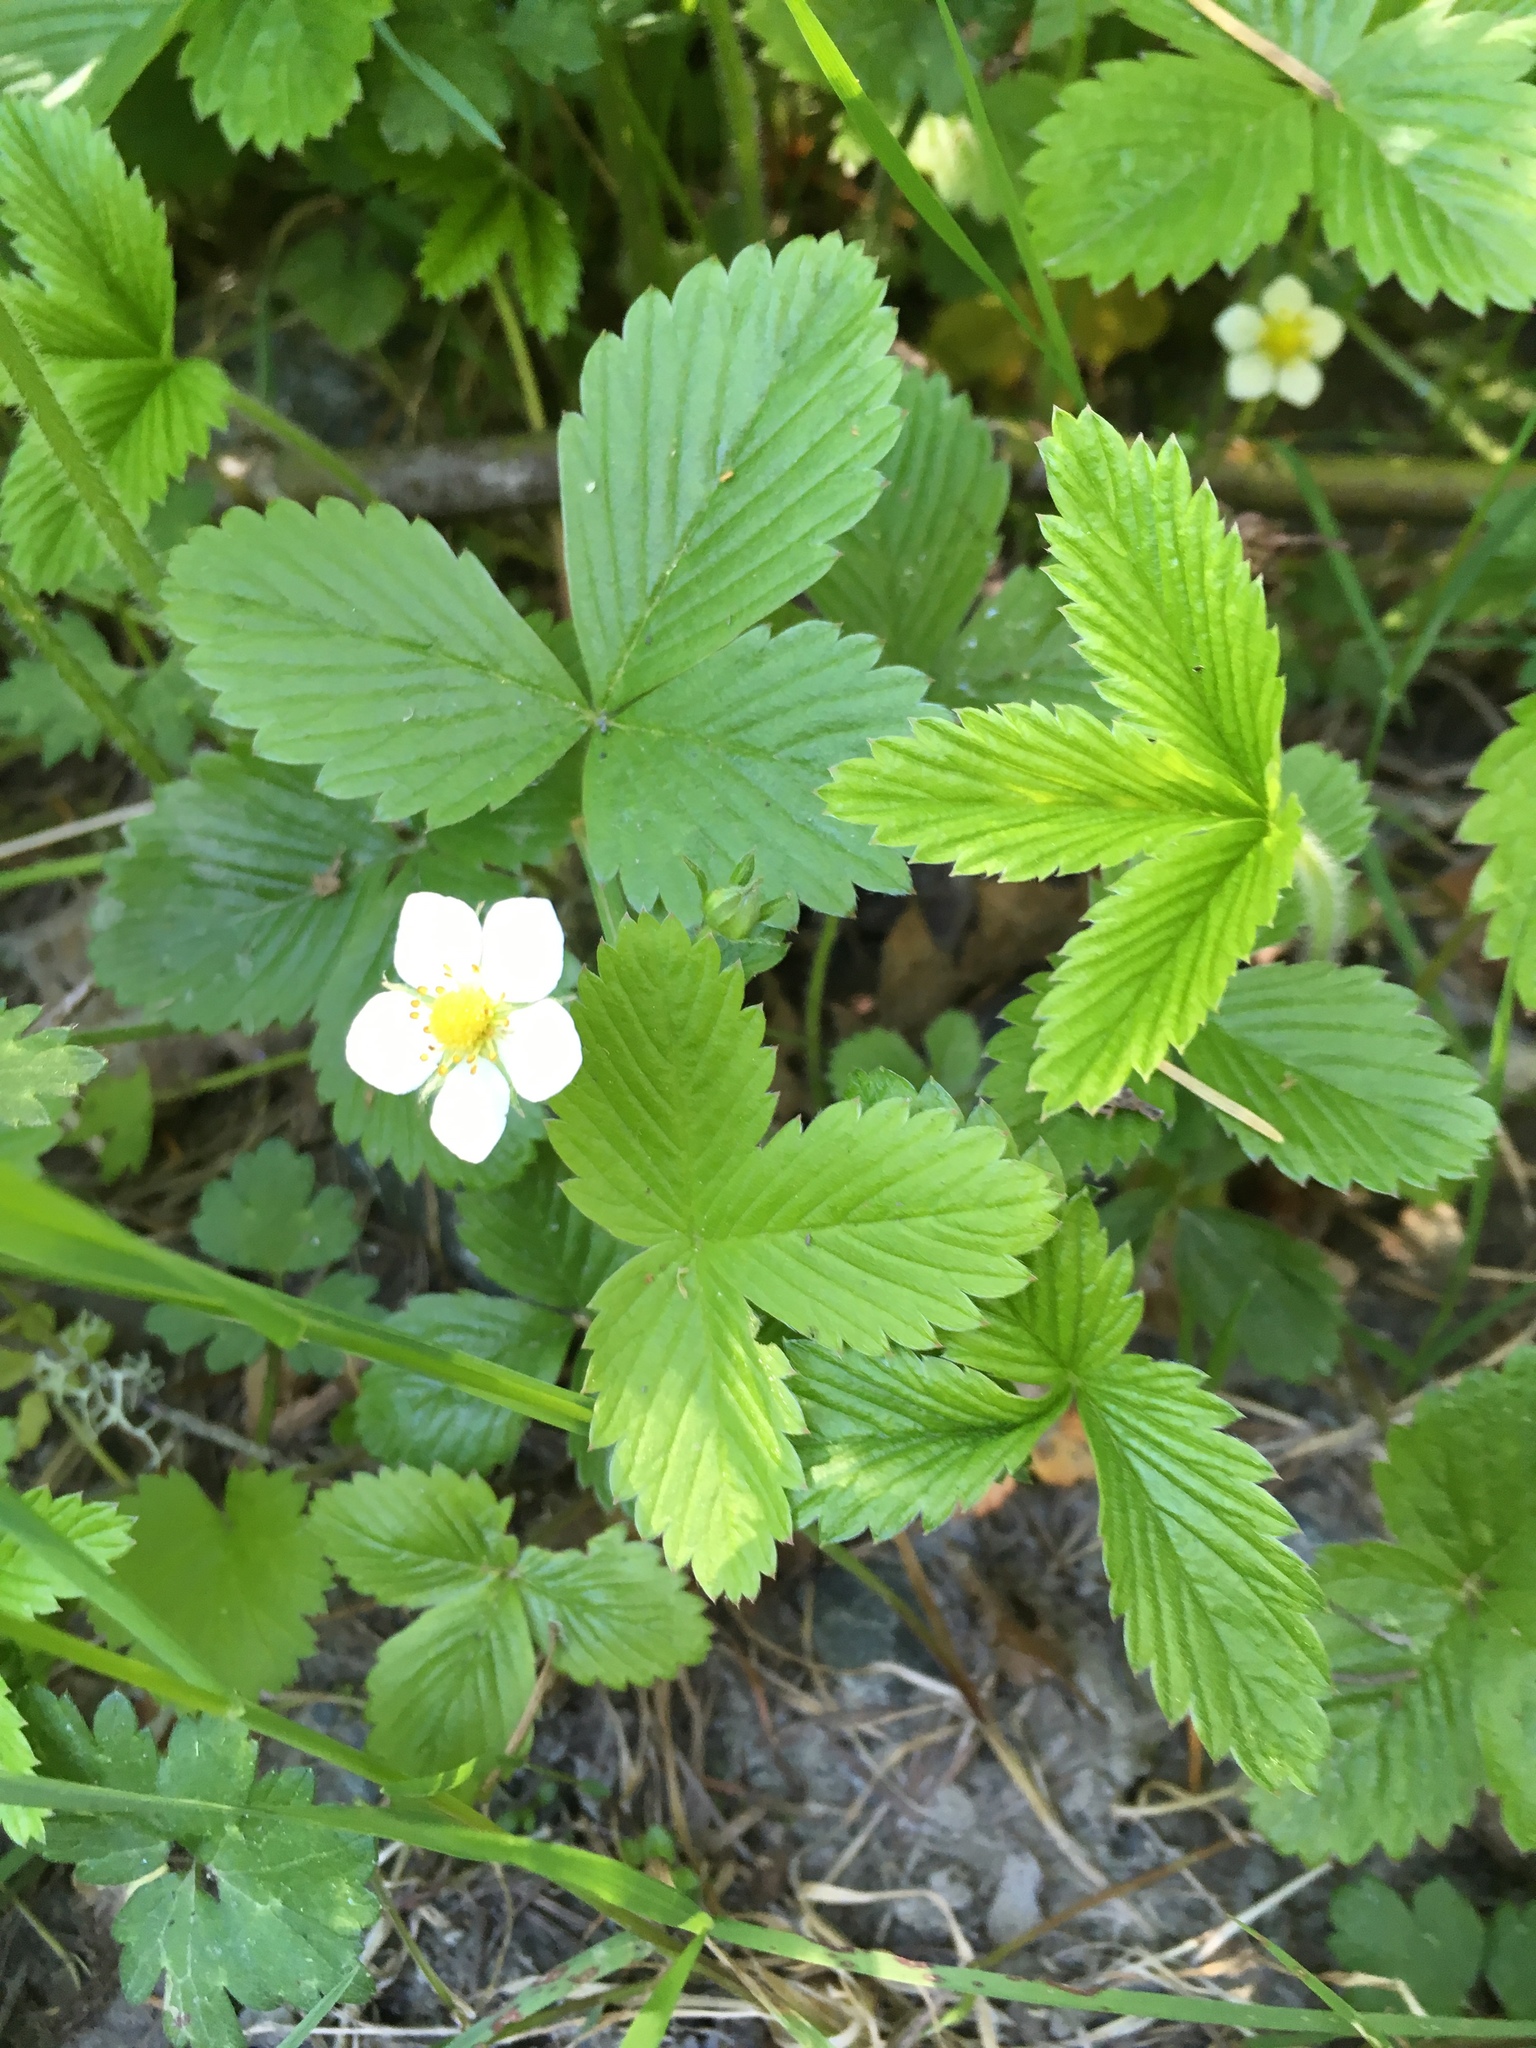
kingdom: Plantae
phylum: Tracheophyta
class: Magnoliopsida
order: Rosales
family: Rosaceae
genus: Fragaria
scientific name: Fragaria vesca
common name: Wild strawberry
